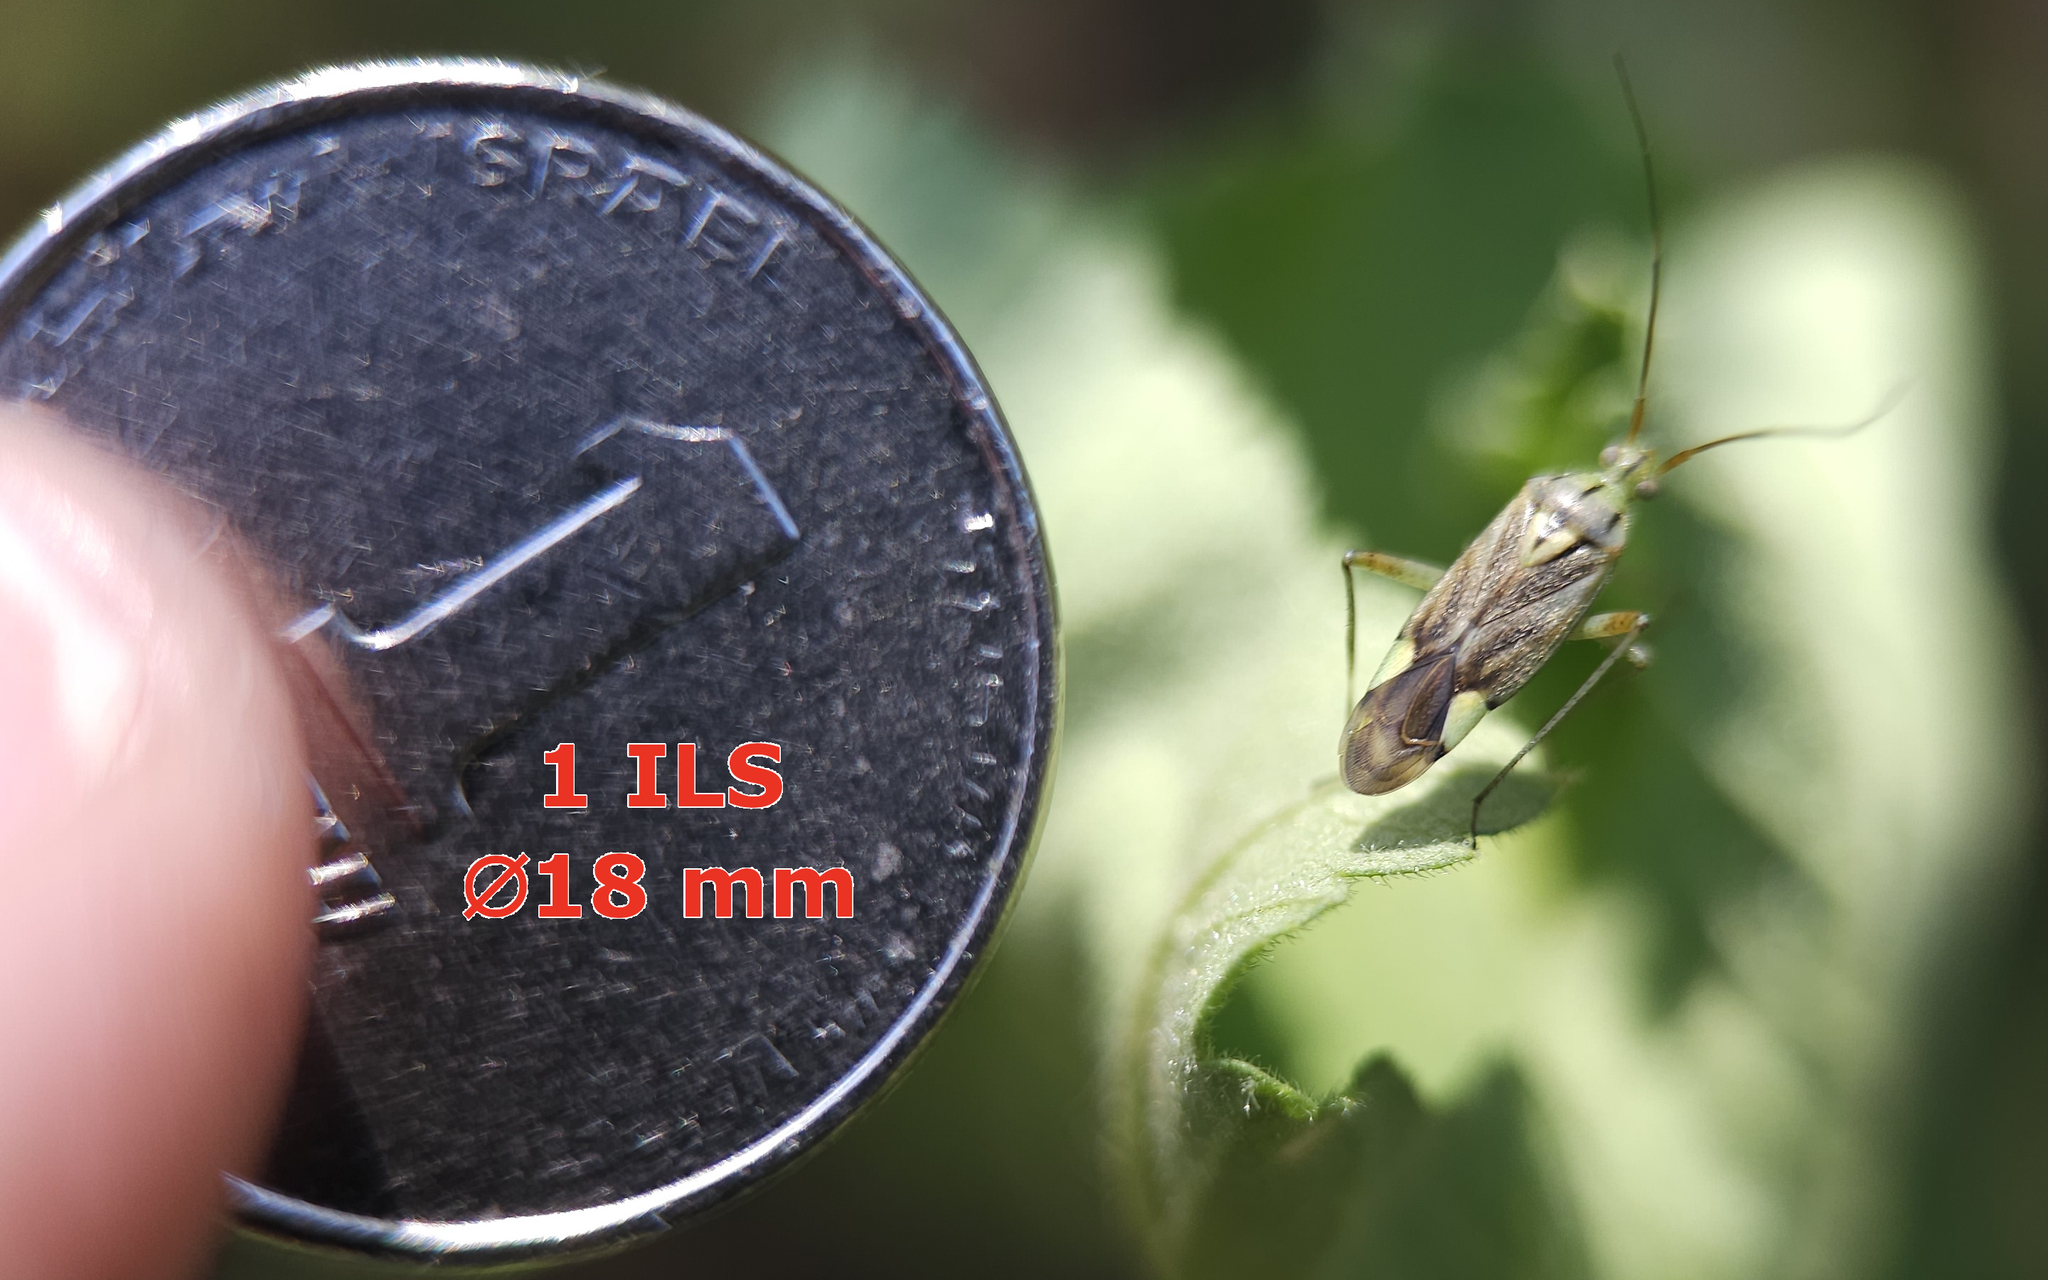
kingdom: Animalia
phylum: Arthropoda
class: Insecta
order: Hemiptera
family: Miridae
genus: Closterotomus
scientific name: Closterotomus putoni
